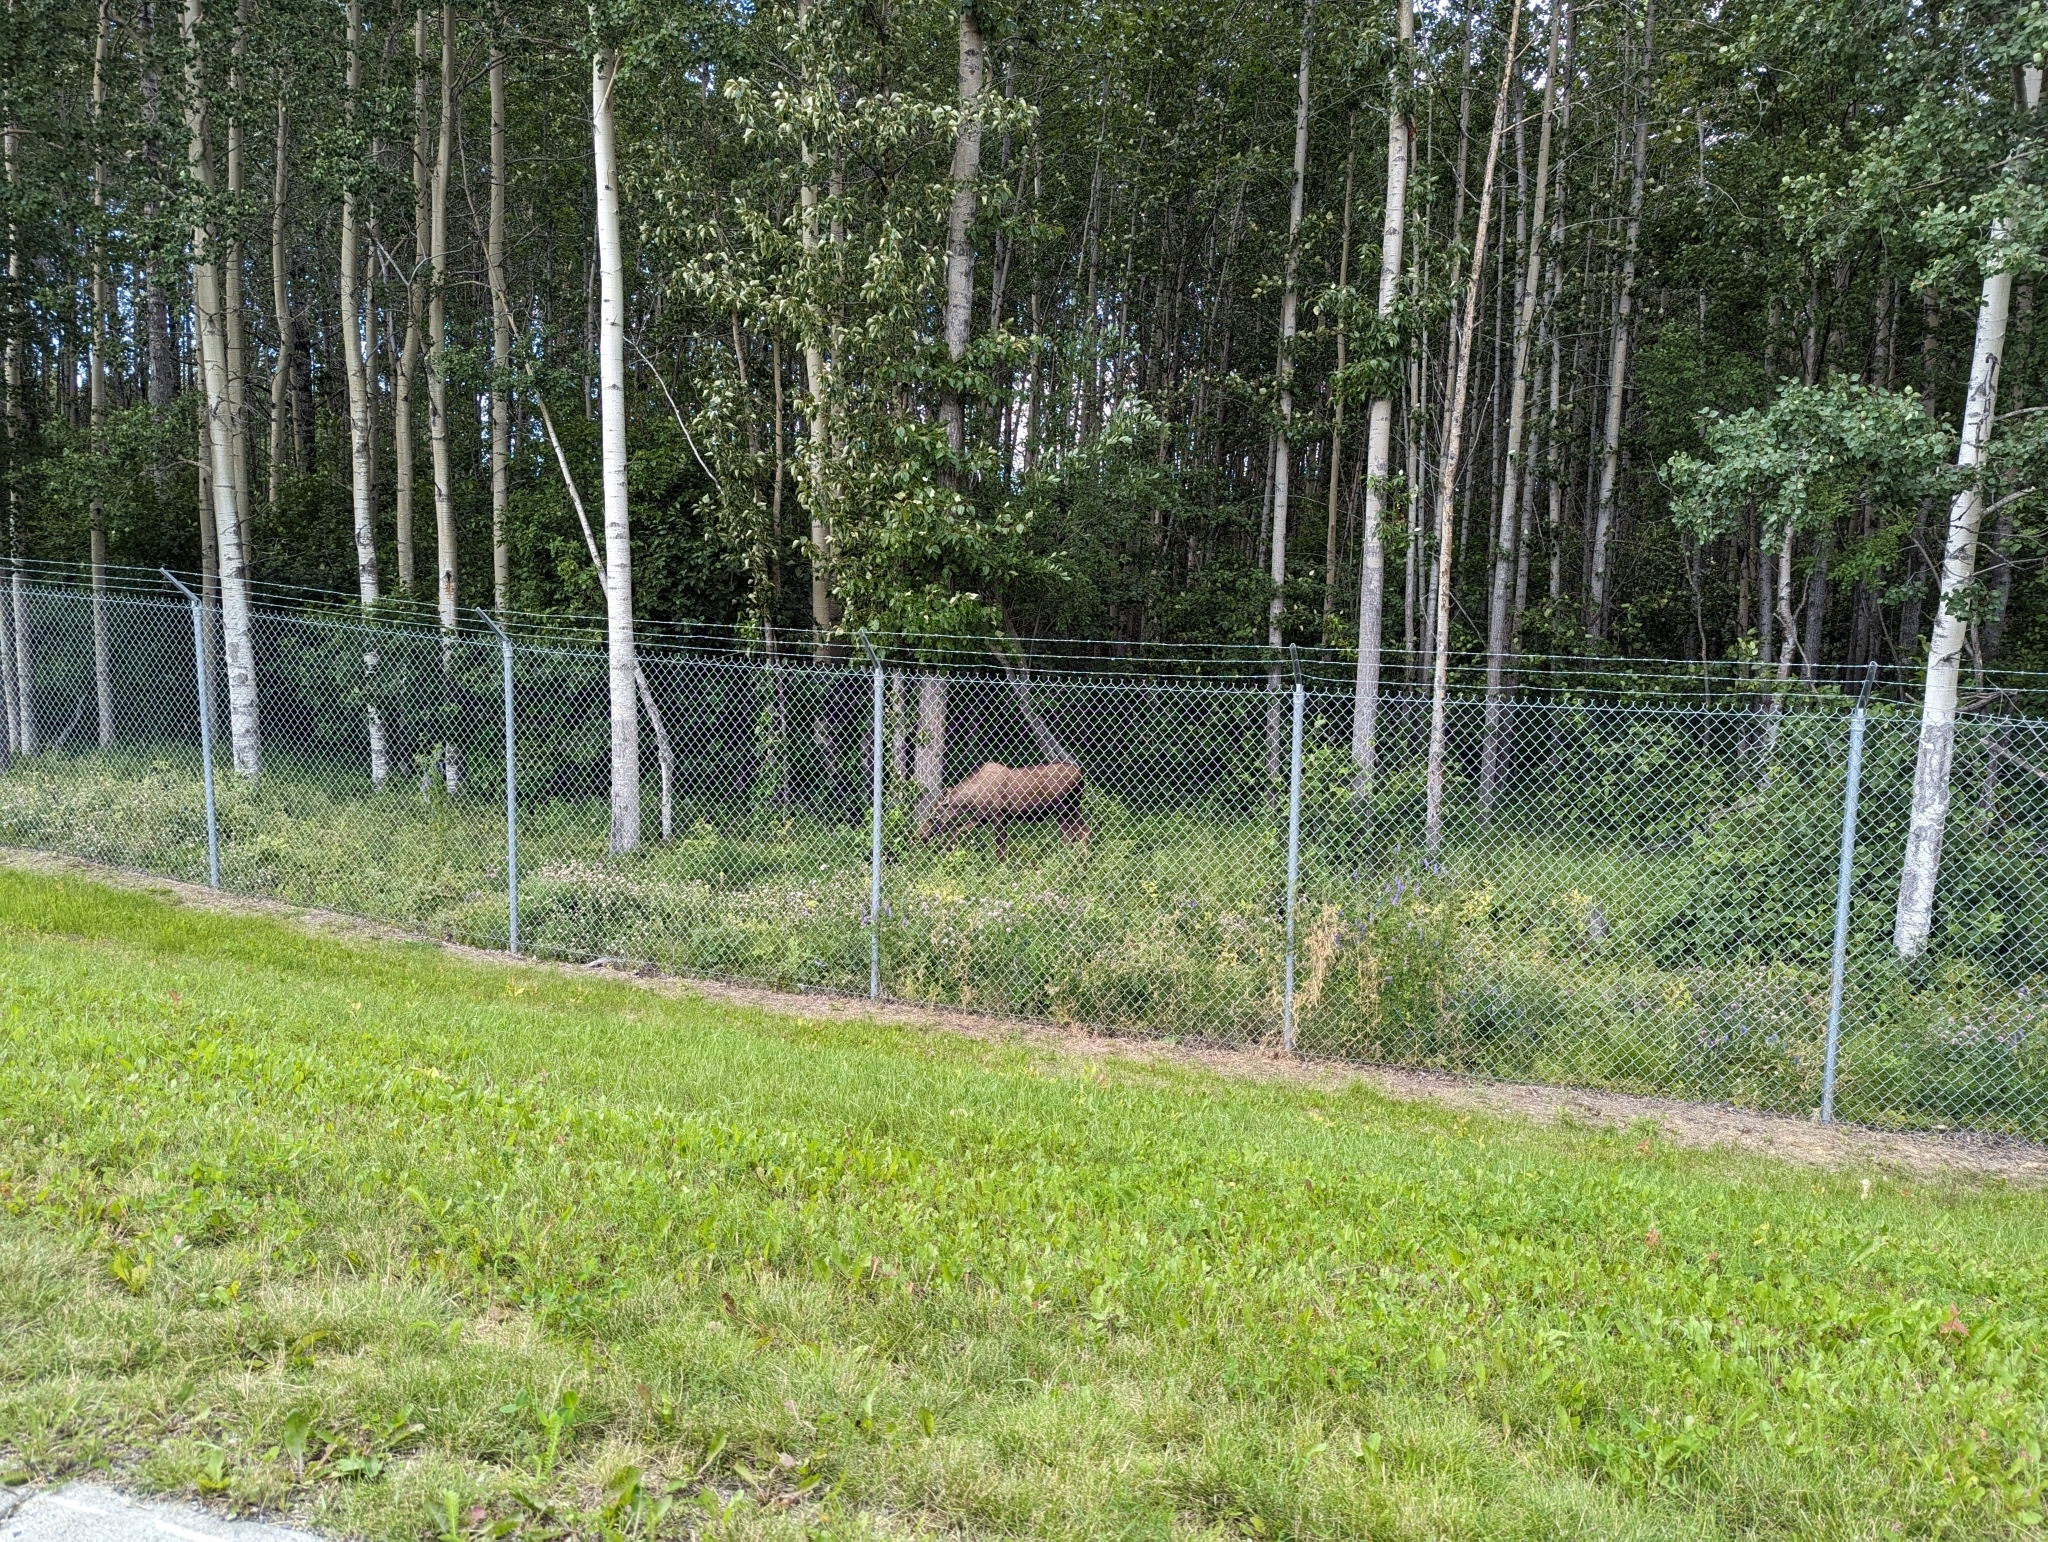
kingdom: Animalia
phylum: Chordata
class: Mammalia
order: Artiodactyla
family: Cervidae
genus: Alces
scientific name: Alces alces
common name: Moose
